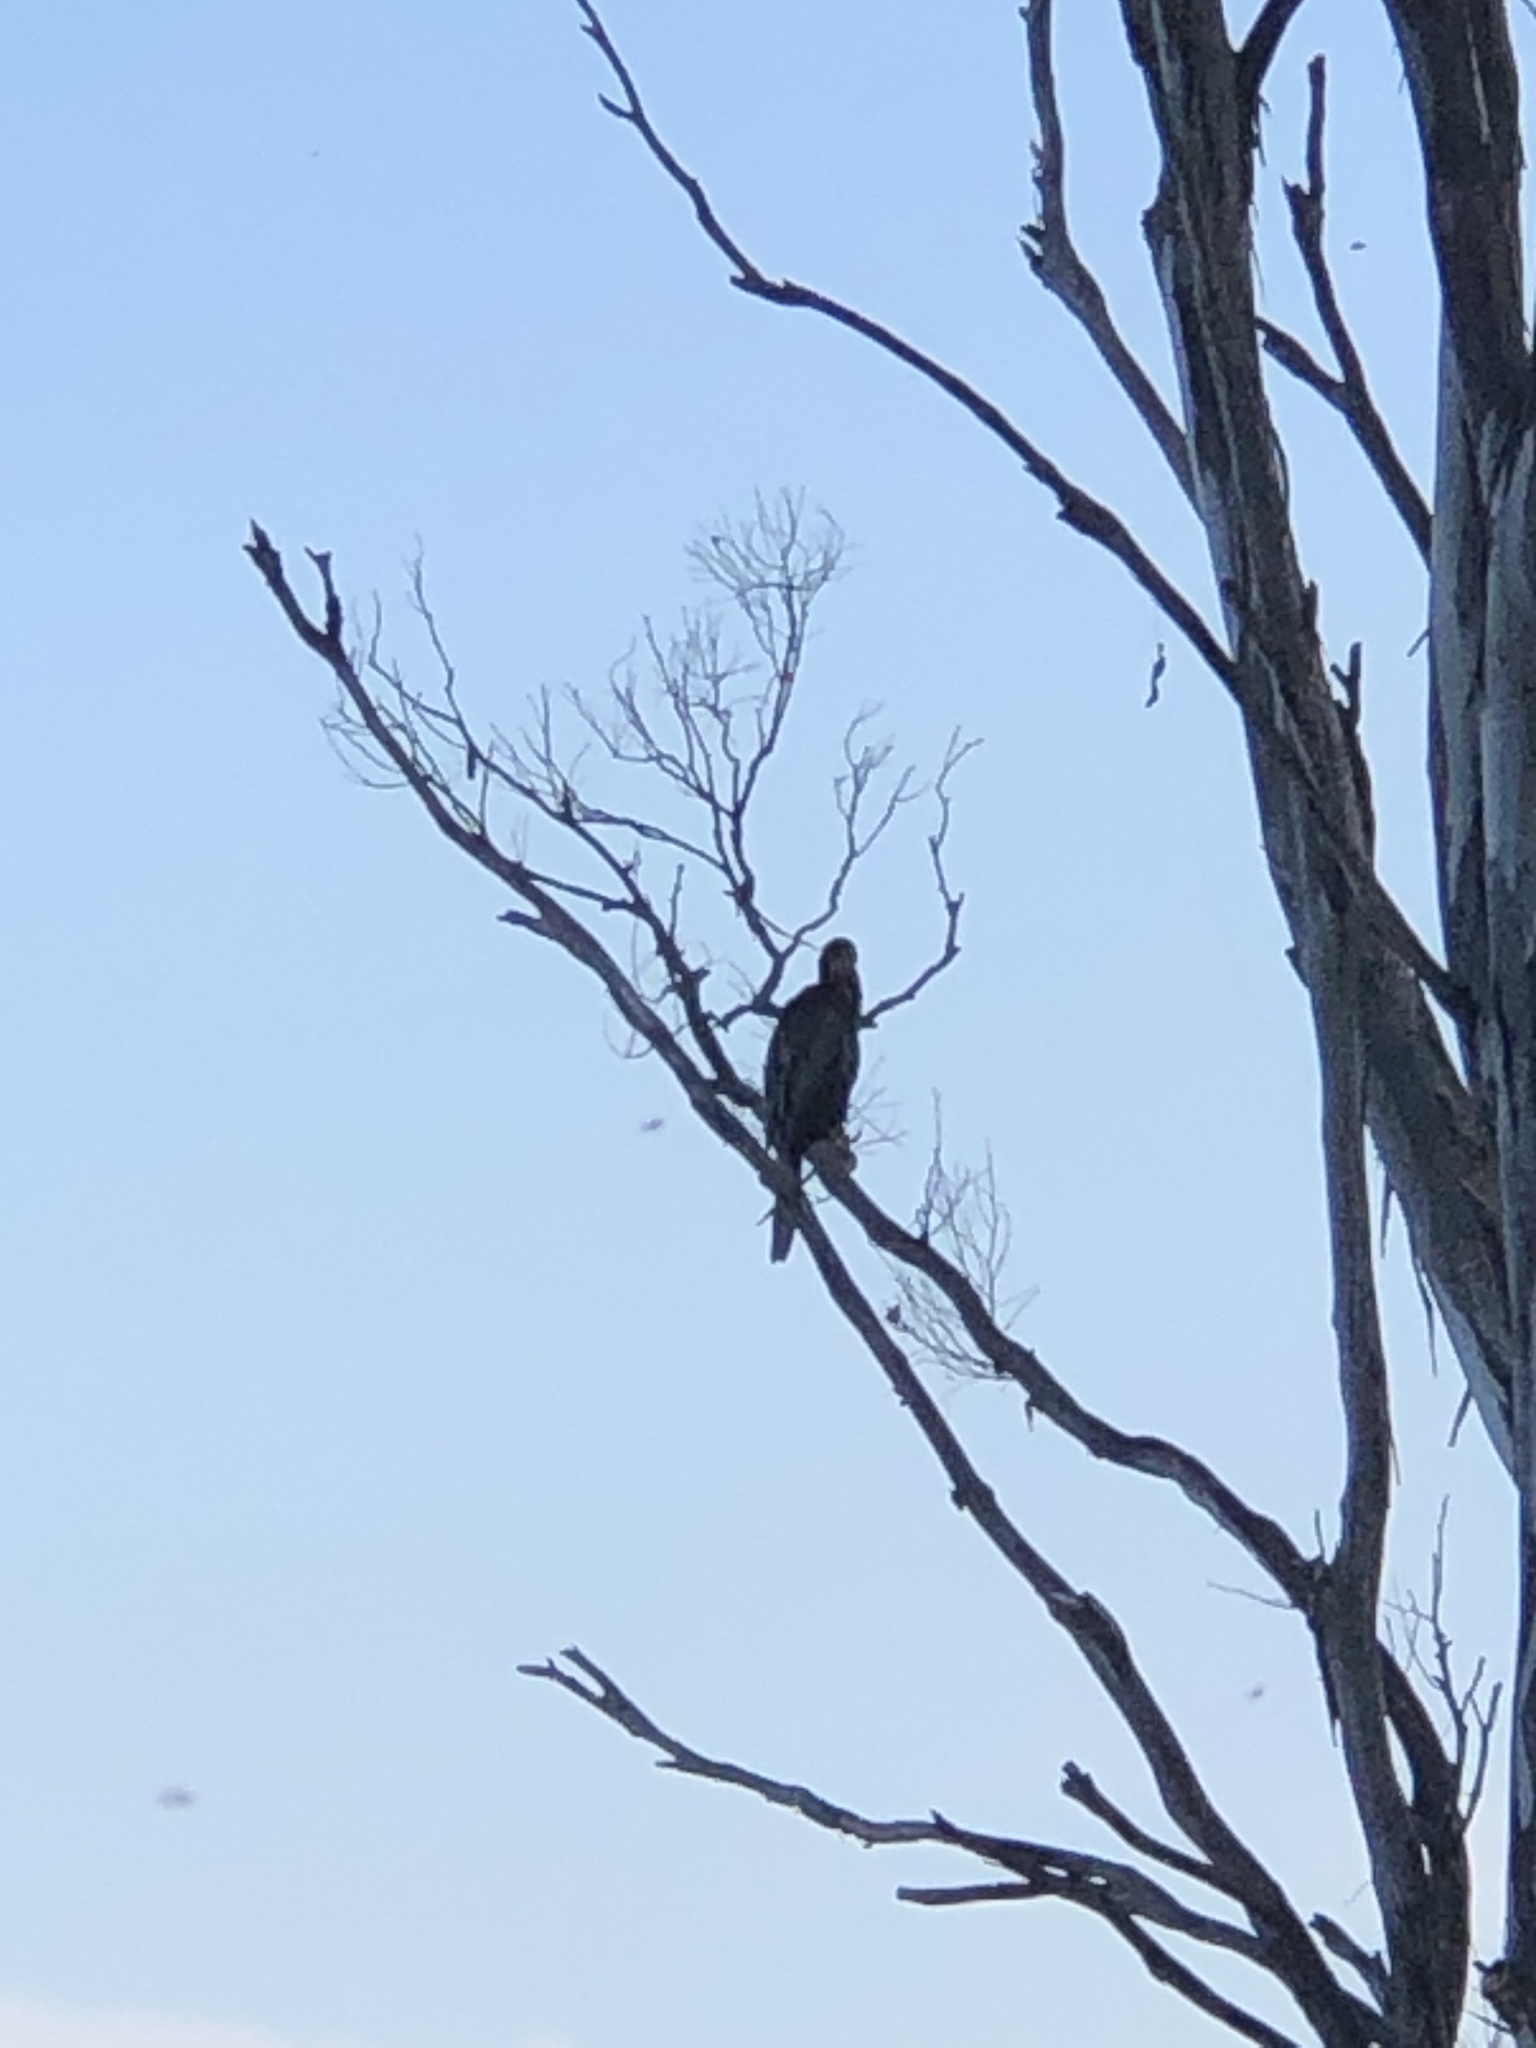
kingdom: Animalia
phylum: Chordata
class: Aves
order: Suliformes
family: Anhingidae
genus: Anhinga
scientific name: Anhinga novaehollandiae
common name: Australasian darter
